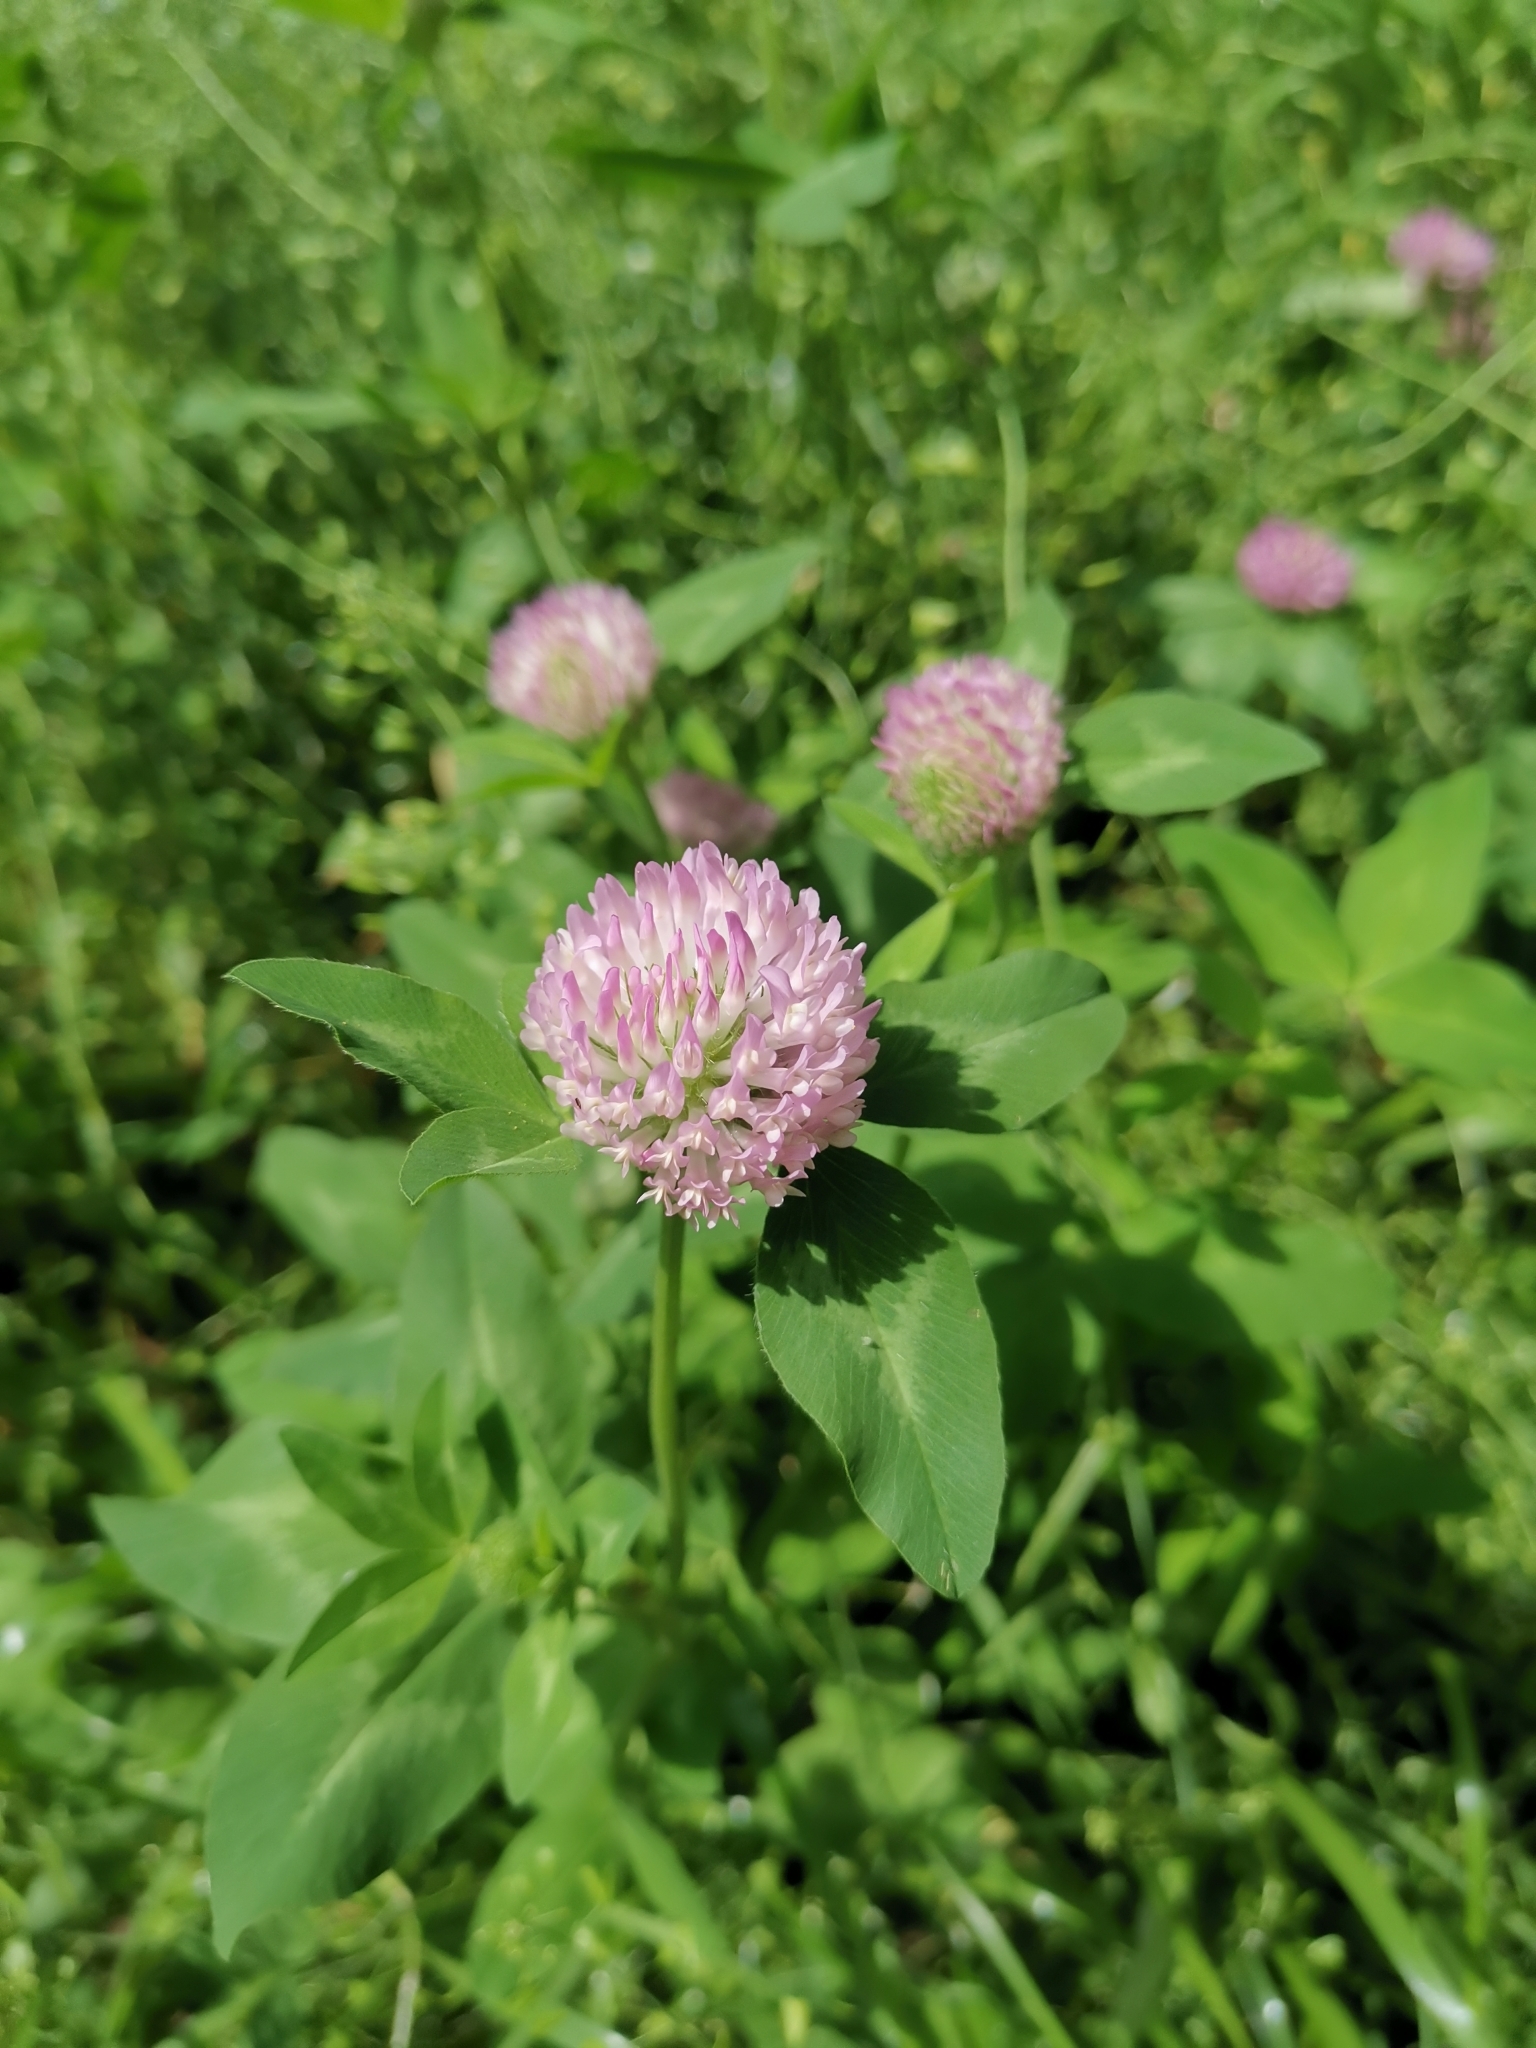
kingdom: Plantae
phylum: Tracheophyta
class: Magnoliopsida
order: Fabales
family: Fabaceae
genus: Trifolium
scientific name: Trifolium pratense
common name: Red clover
